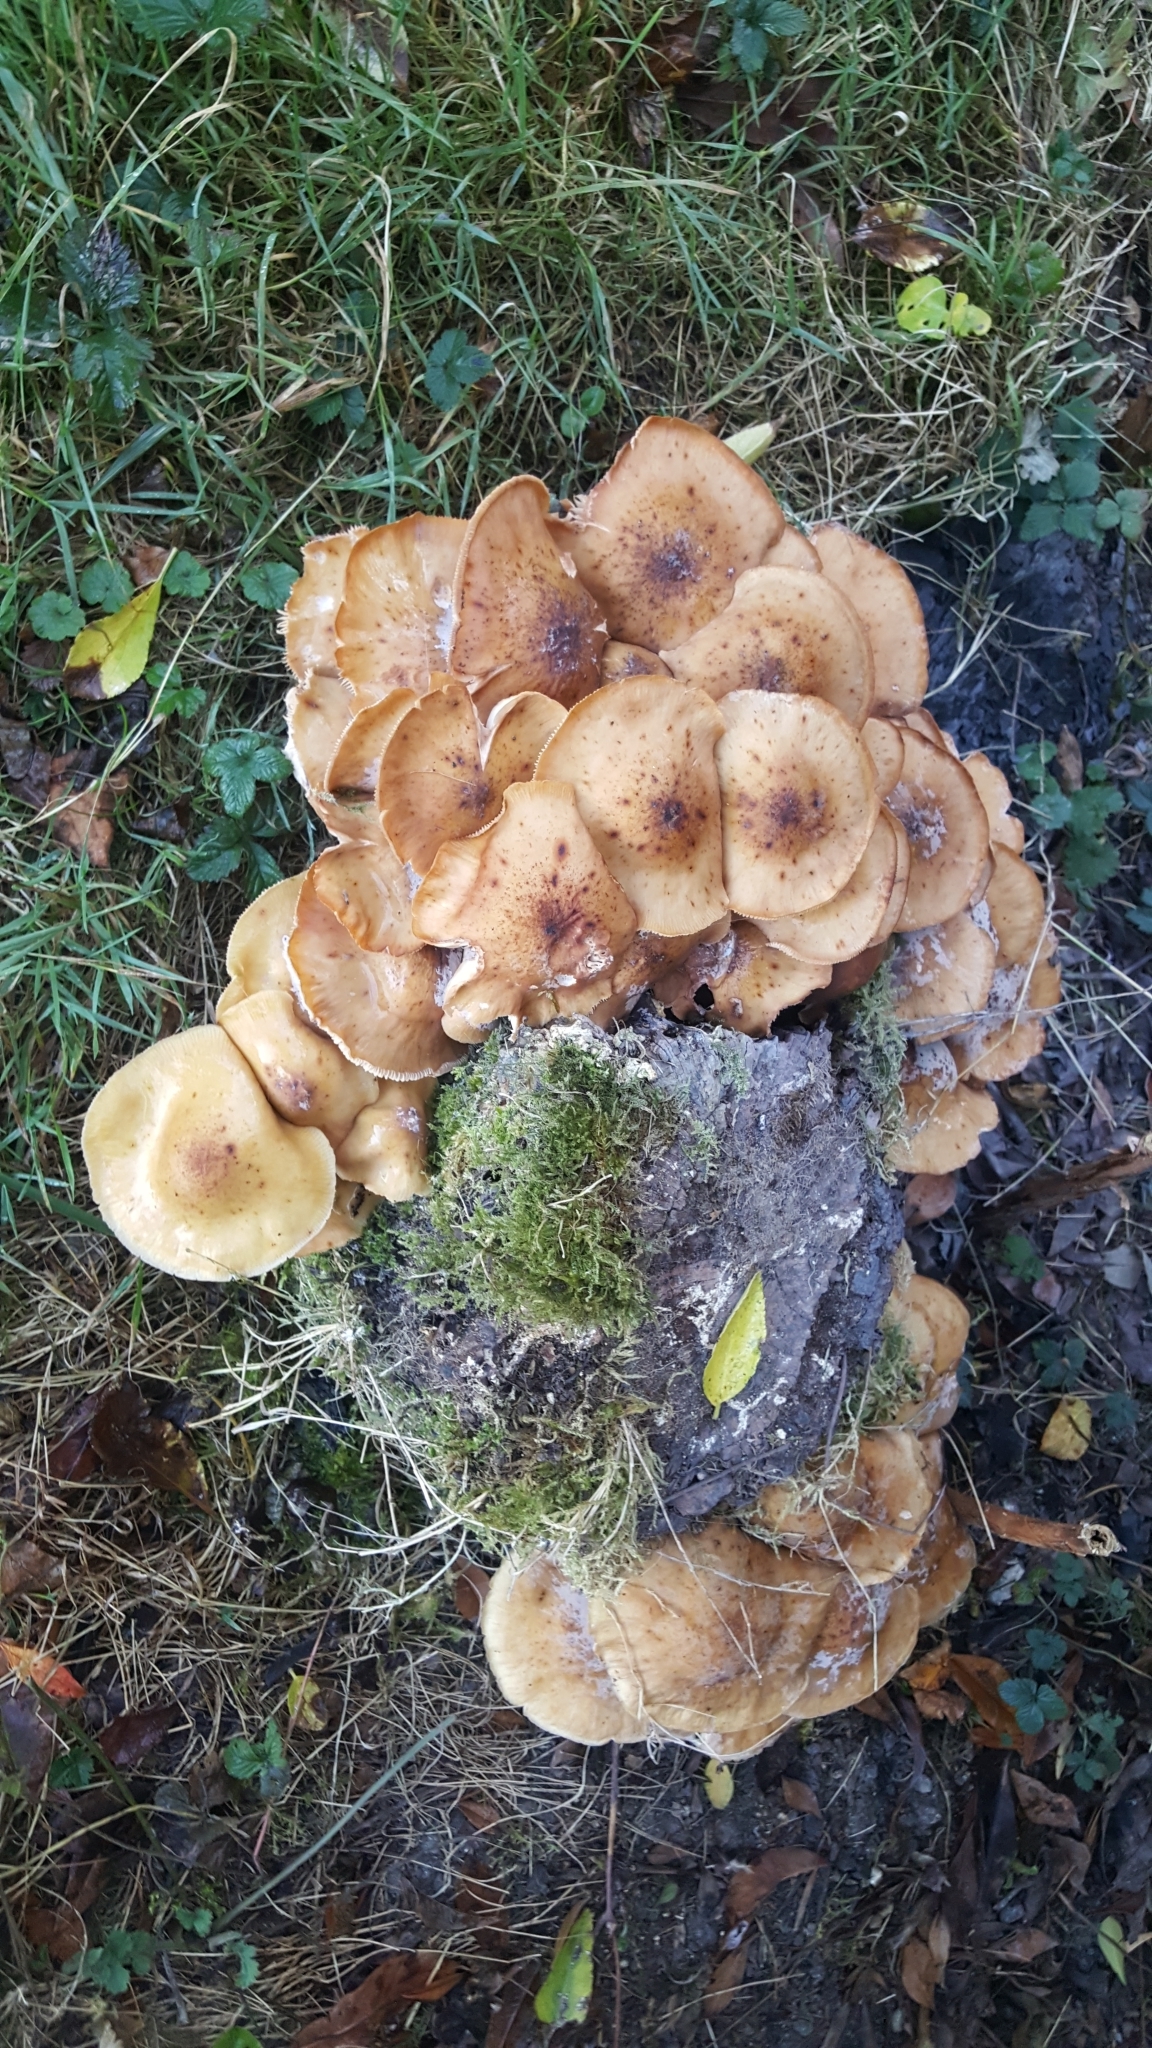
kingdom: Fungi
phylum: Basidiomycota
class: Agaricomycetes
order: Agaricales
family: Physalacriaceae
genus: Armillaria
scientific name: Armillaria mellea
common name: Honey fungus
